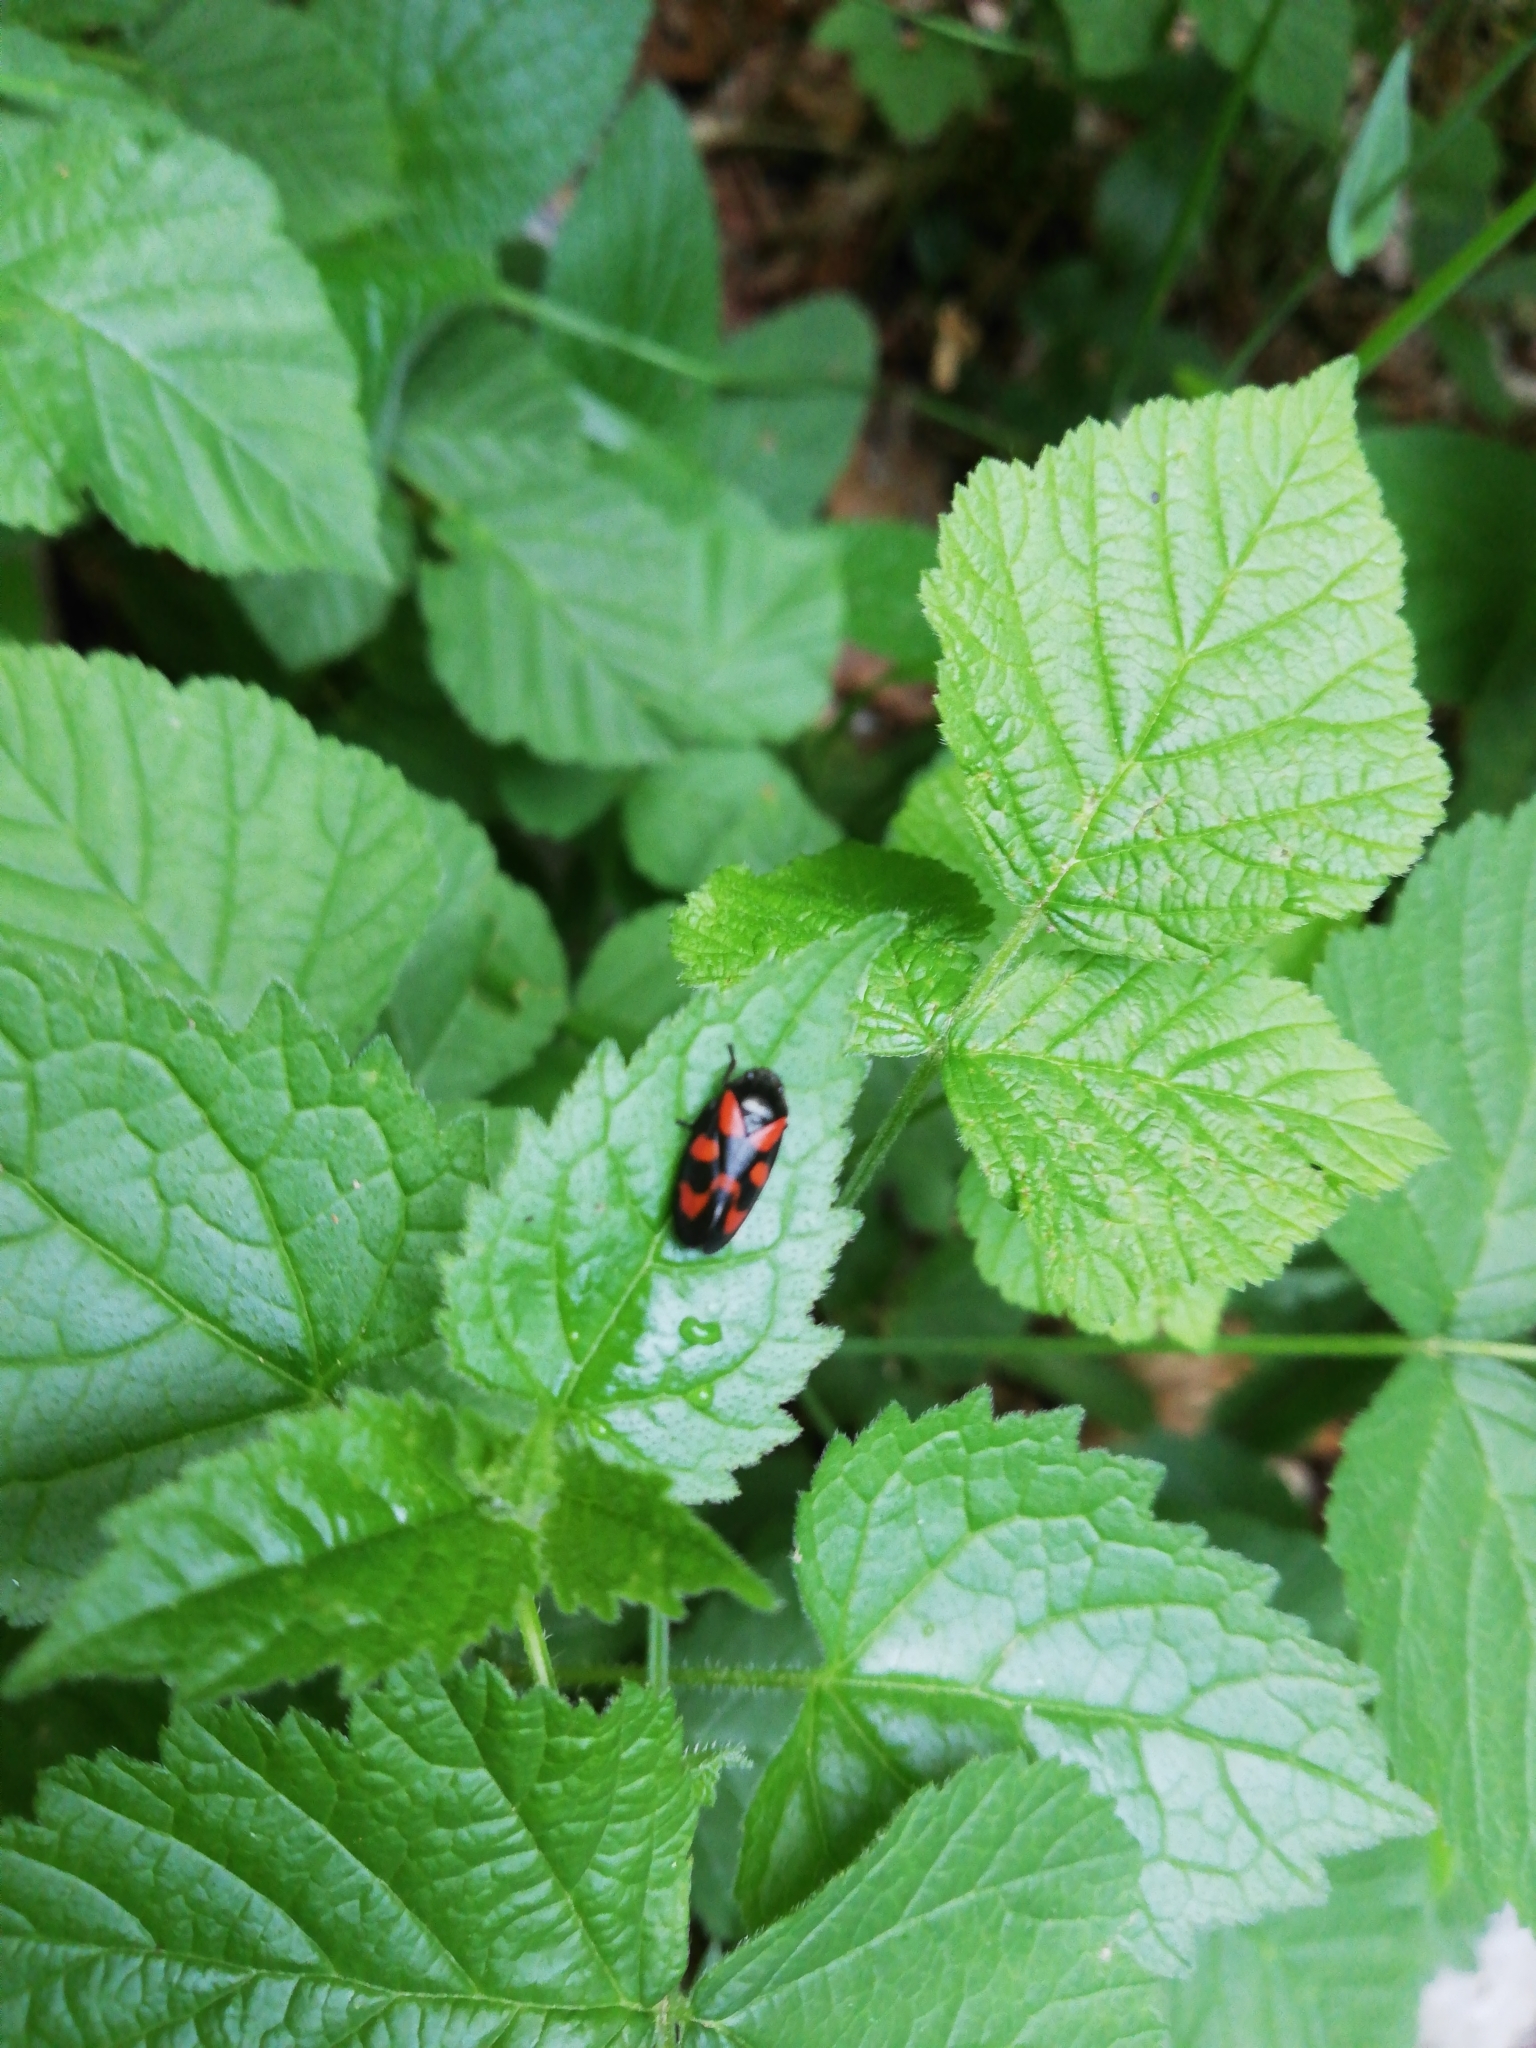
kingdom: Animalia
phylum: Arthropoda
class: Insecta
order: Hemiptera
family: Cercopidae
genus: Cercopis
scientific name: Cercopis vulnerata
